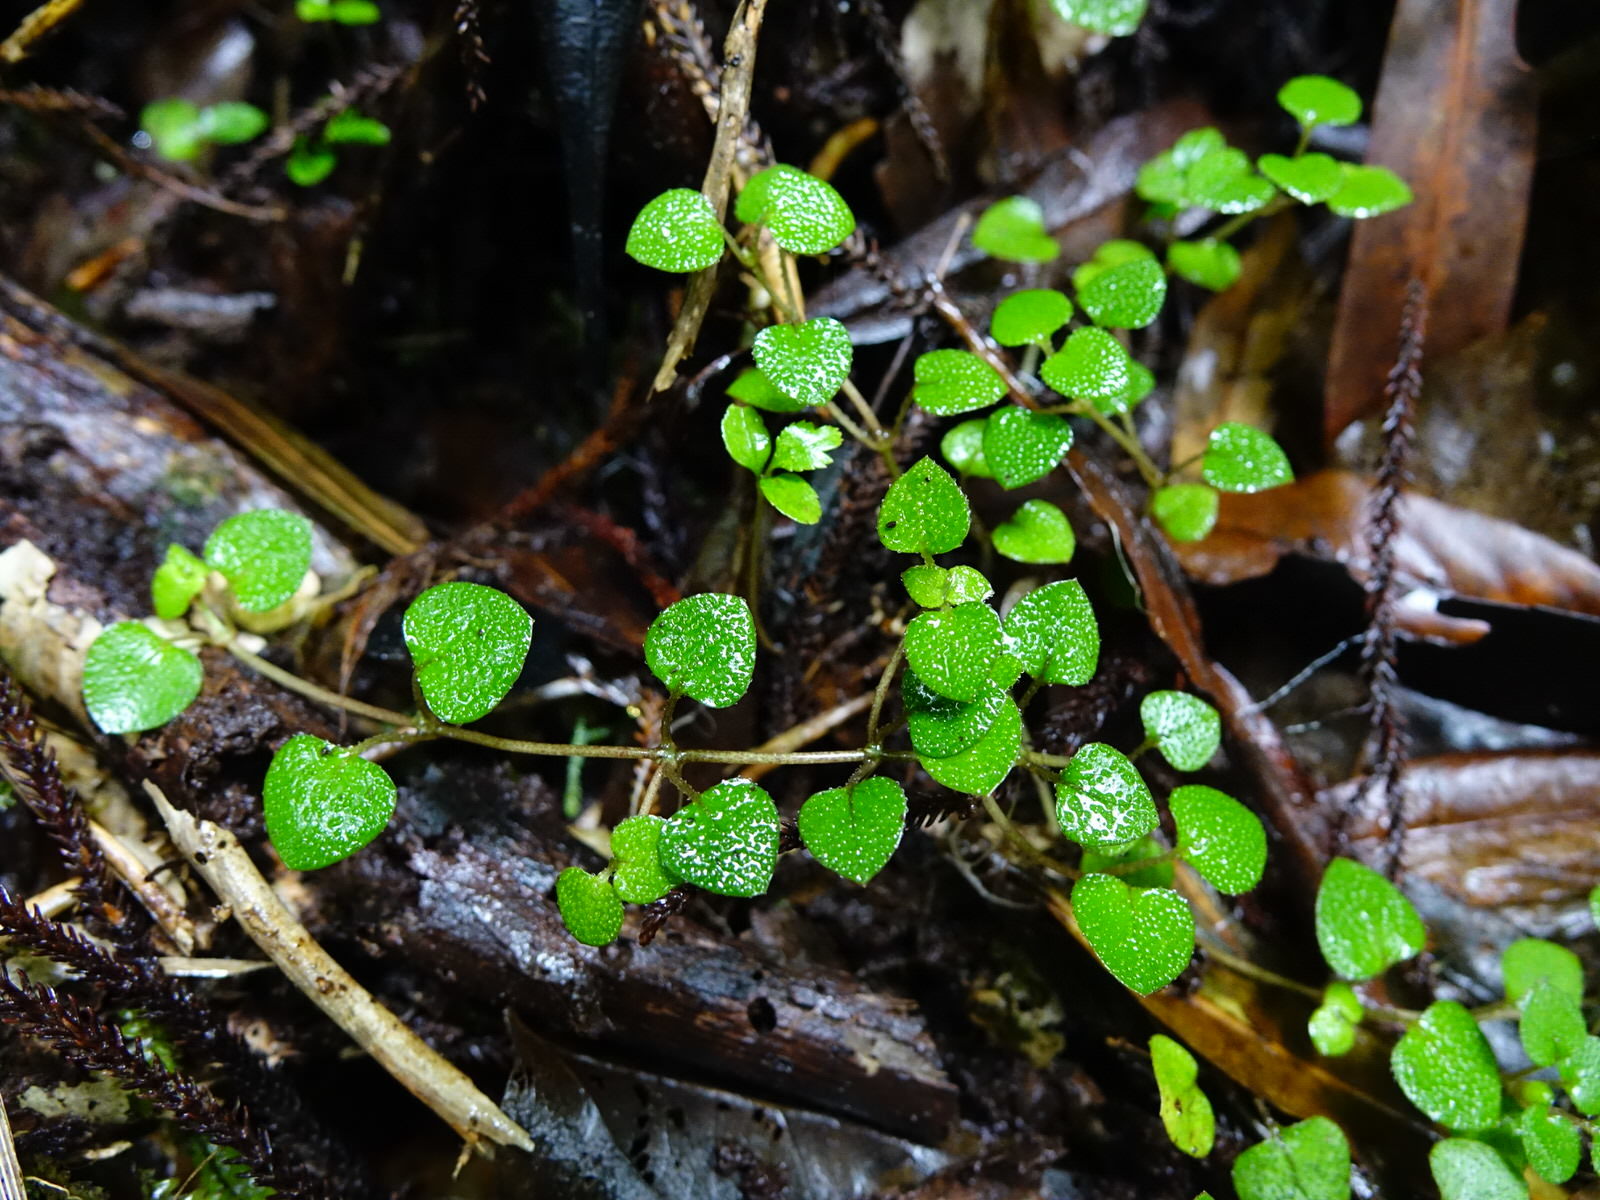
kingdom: Plantae
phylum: Tracheophyta
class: Magnoliopsida
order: Gentianales
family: Rubiaceae
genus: Nertera
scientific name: Nertera dichondrifolia
